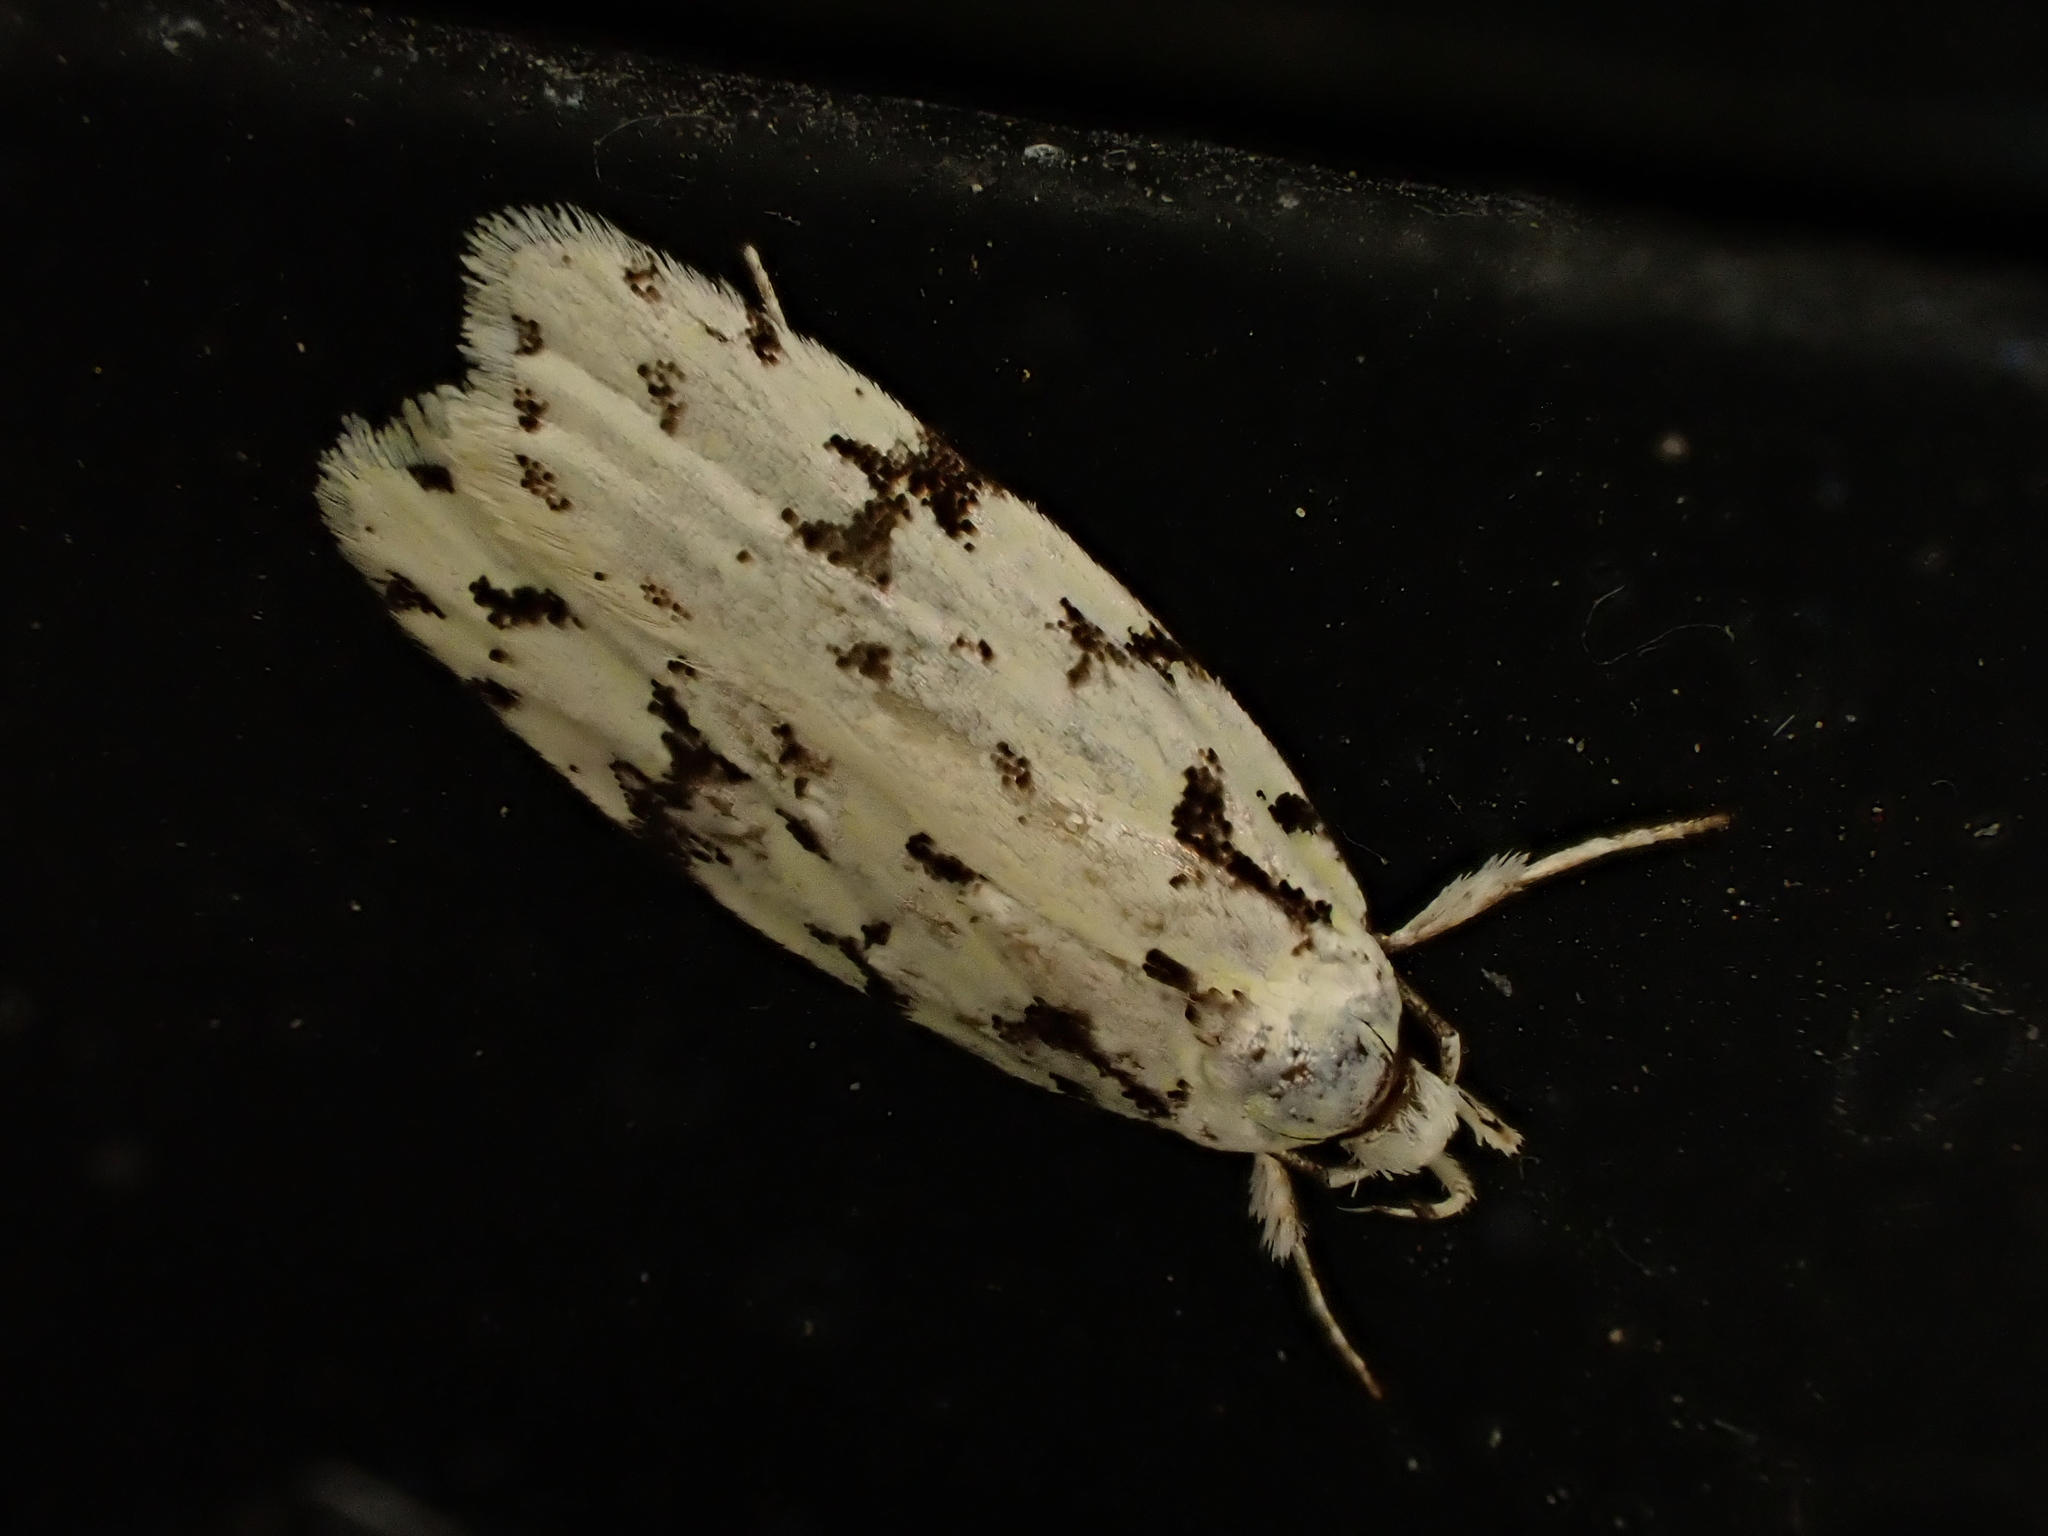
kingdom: Animalia
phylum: Arthropoda
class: Insecta
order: Lepidoptera
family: Oecophoridae
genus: Izatha
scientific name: Izatha peroneanella
